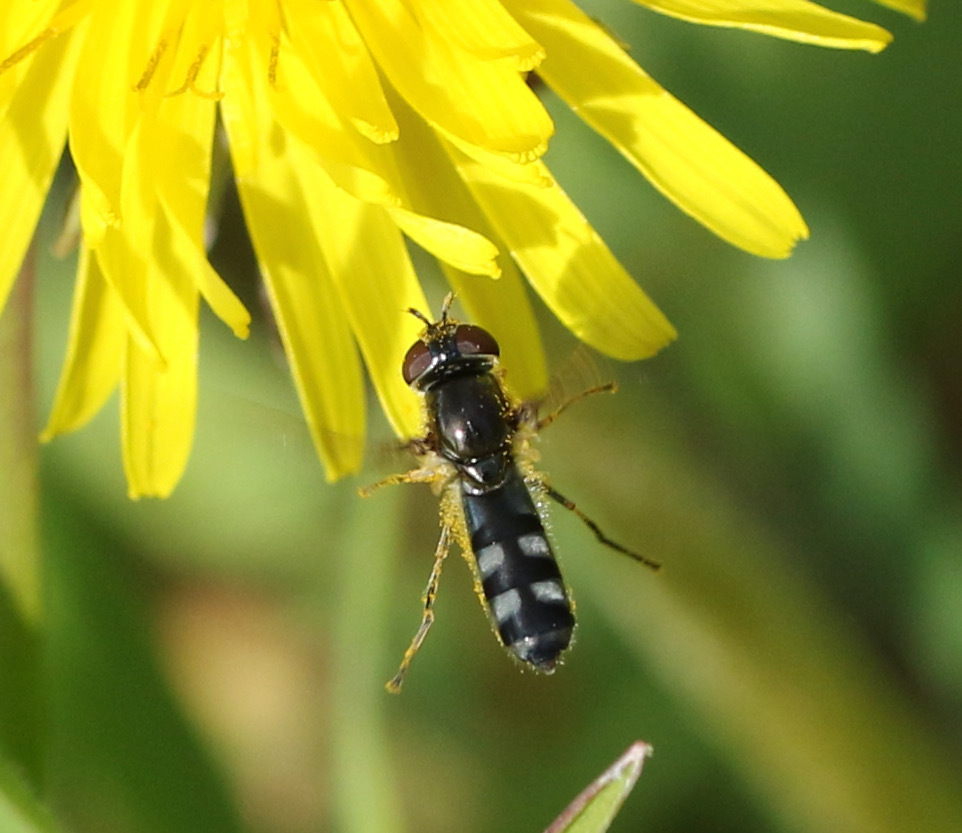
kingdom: Animalia
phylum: Arthropoda
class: Insecta
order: Diptera
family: Syrphidae
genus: Platycheirus
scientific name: Platycheirus albimanus
